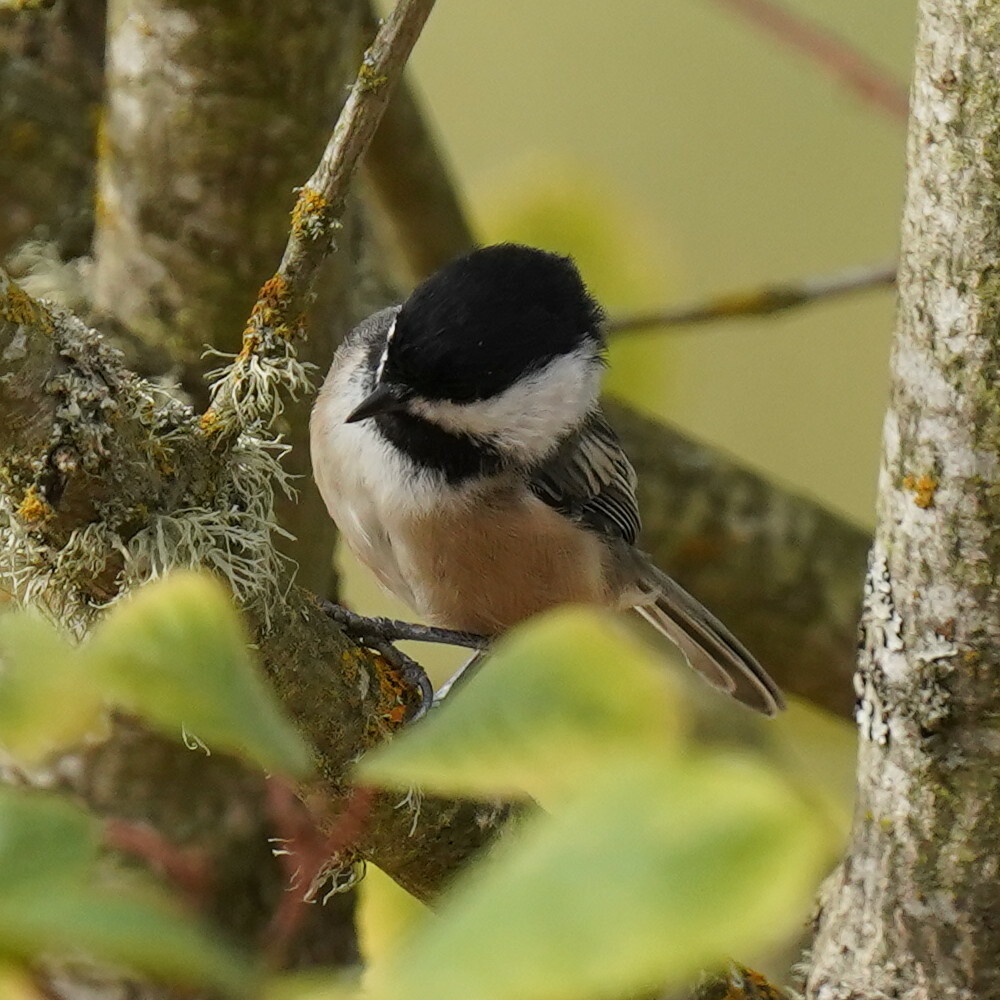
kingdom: Animalia
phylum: Chordata
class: Aves
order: Passeriformes
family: Paridae
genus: Poecile
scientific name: Poecile atricapillus
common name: Black-capped chickadee
